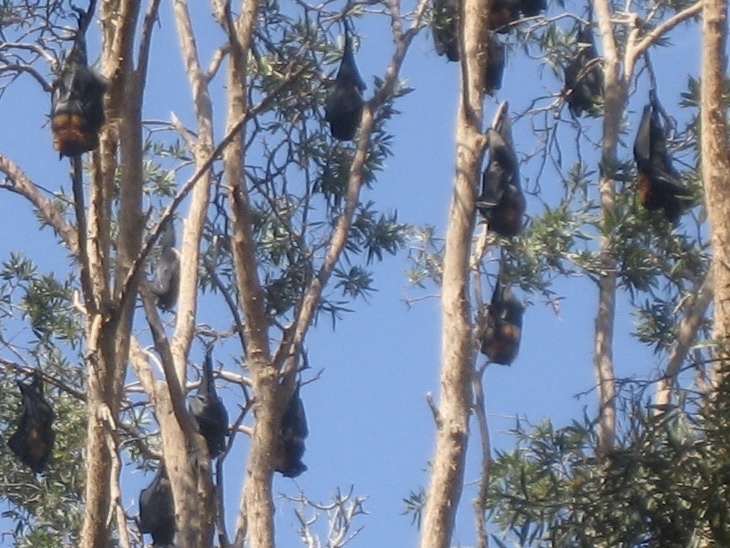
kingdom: Animalia
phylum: Chordata
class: Mammalia
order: Chiroptera
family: Pteropodidae
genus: Pteropus
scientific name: Pteropus poliocephalus
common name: Gray-headed flying fox
